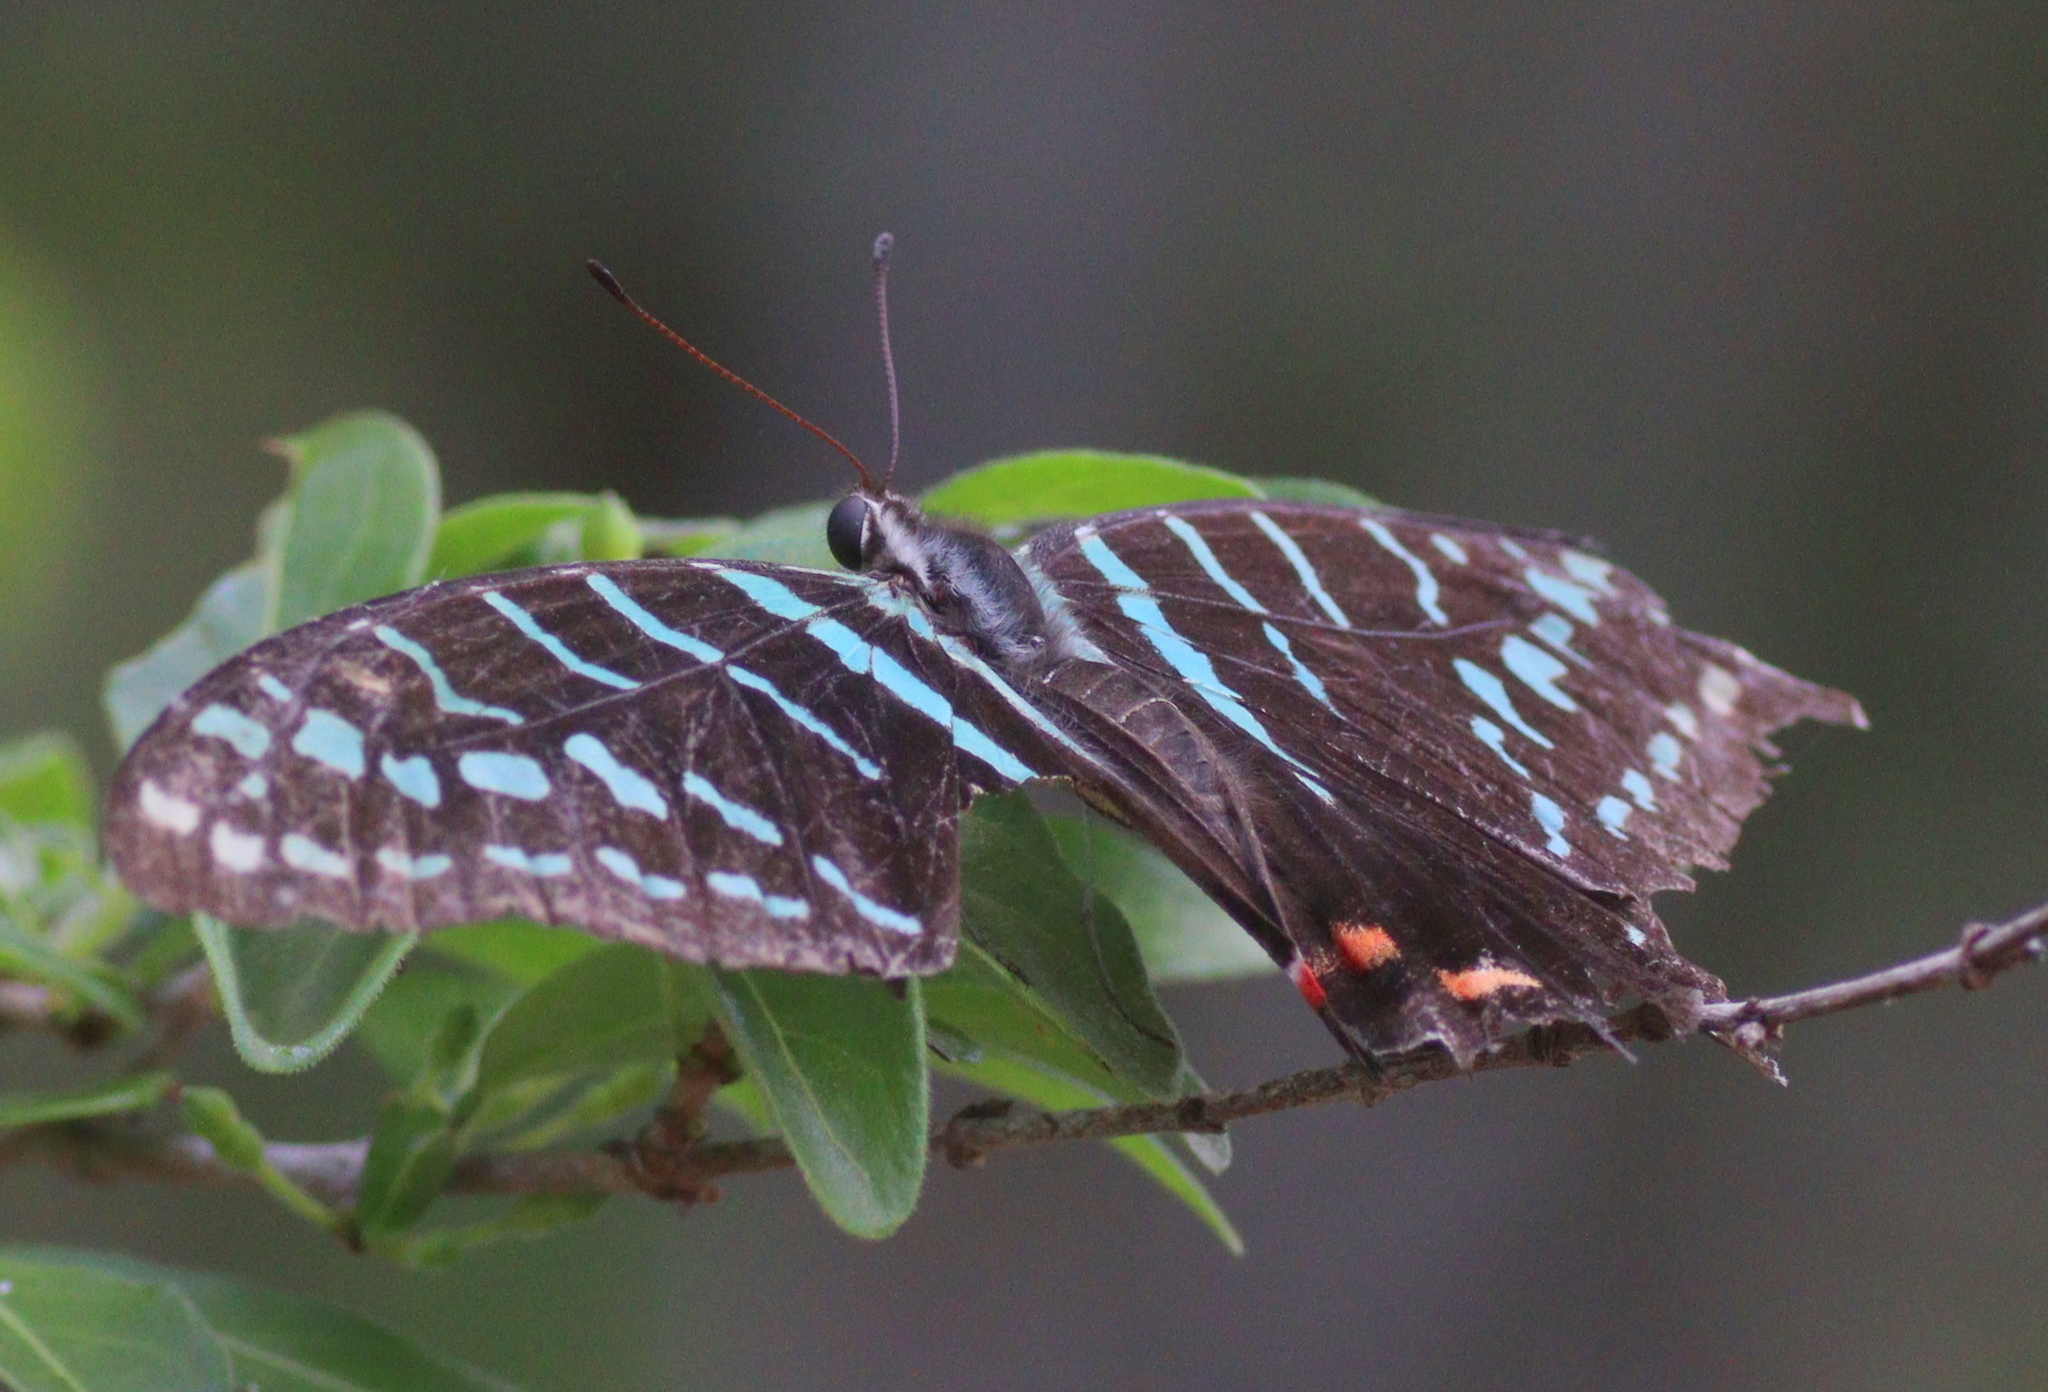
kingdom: Animalia
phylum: Arthropoda
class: Insecta
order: Lepidoptera
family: Papilionidae
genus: Graphium
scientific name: Graphium colonna
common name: Mamba swordtail
